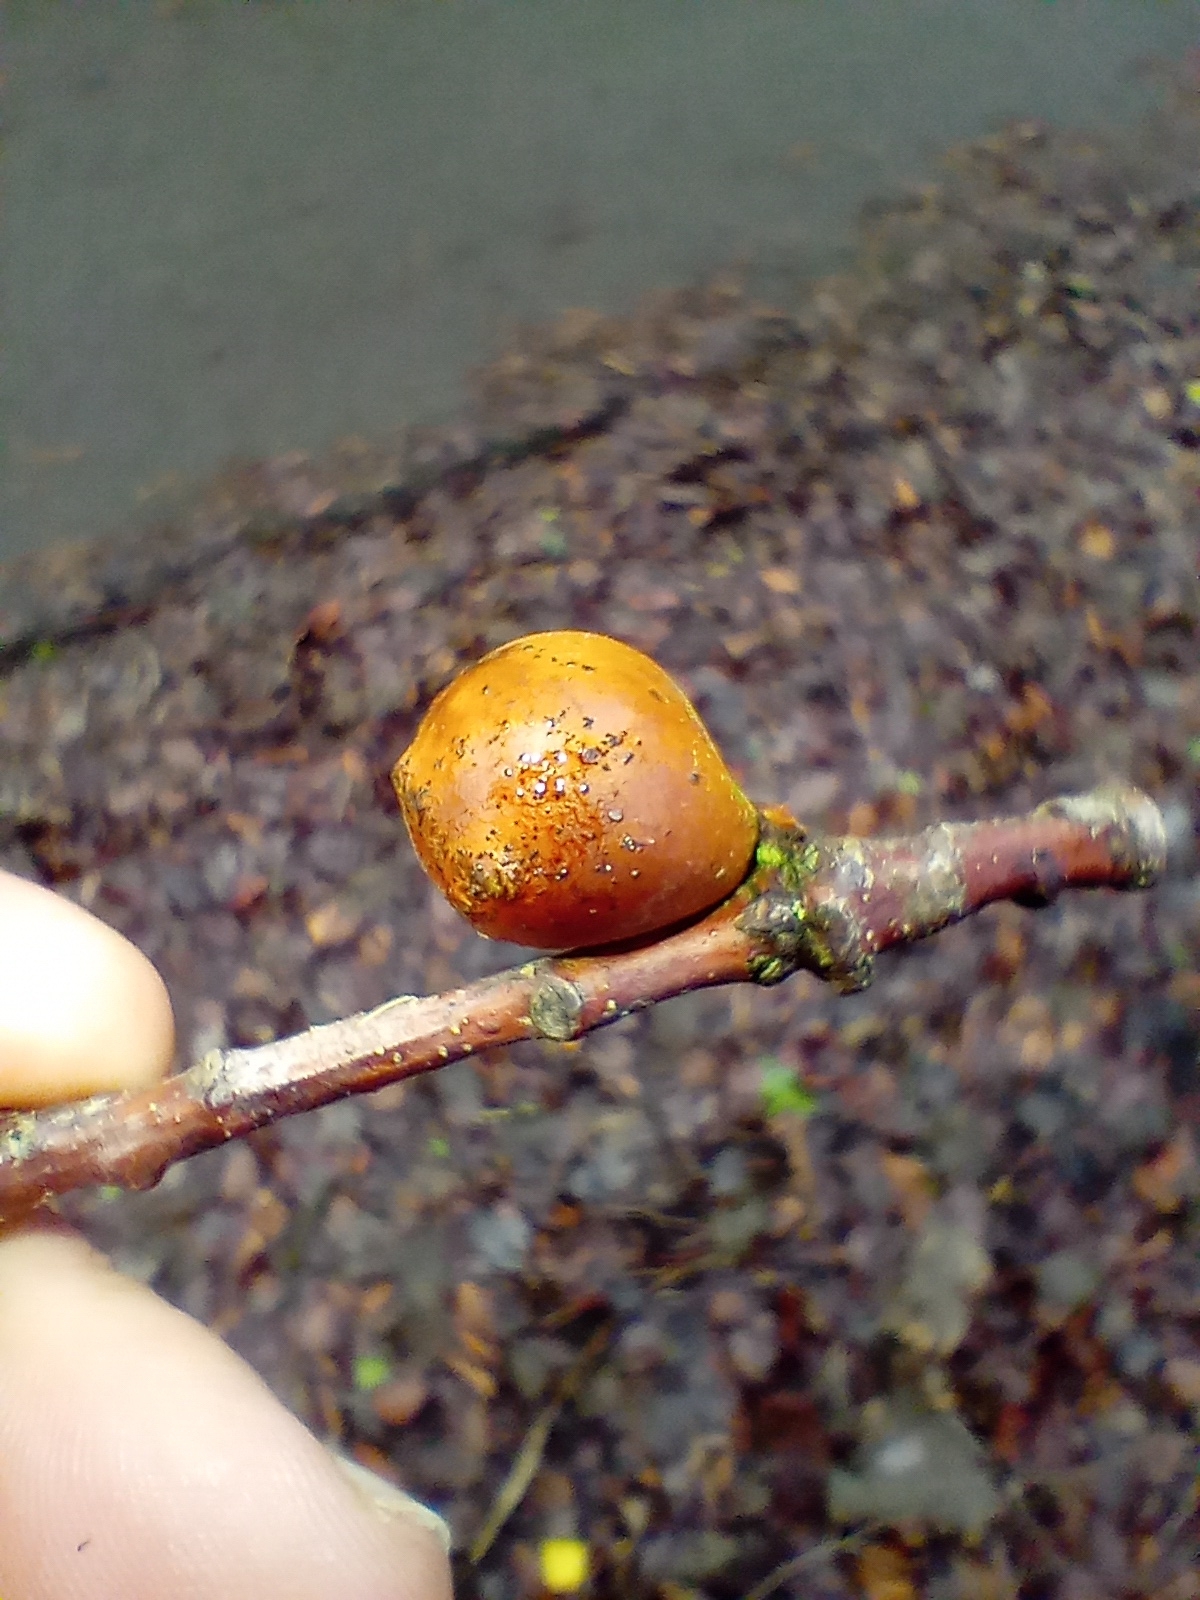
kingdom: Animalia
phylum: Arthropoda
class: Insecta
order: Hymenoptera
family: Cynipidae
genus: Andricus
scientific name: Andricus kollari
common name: Marble gall
